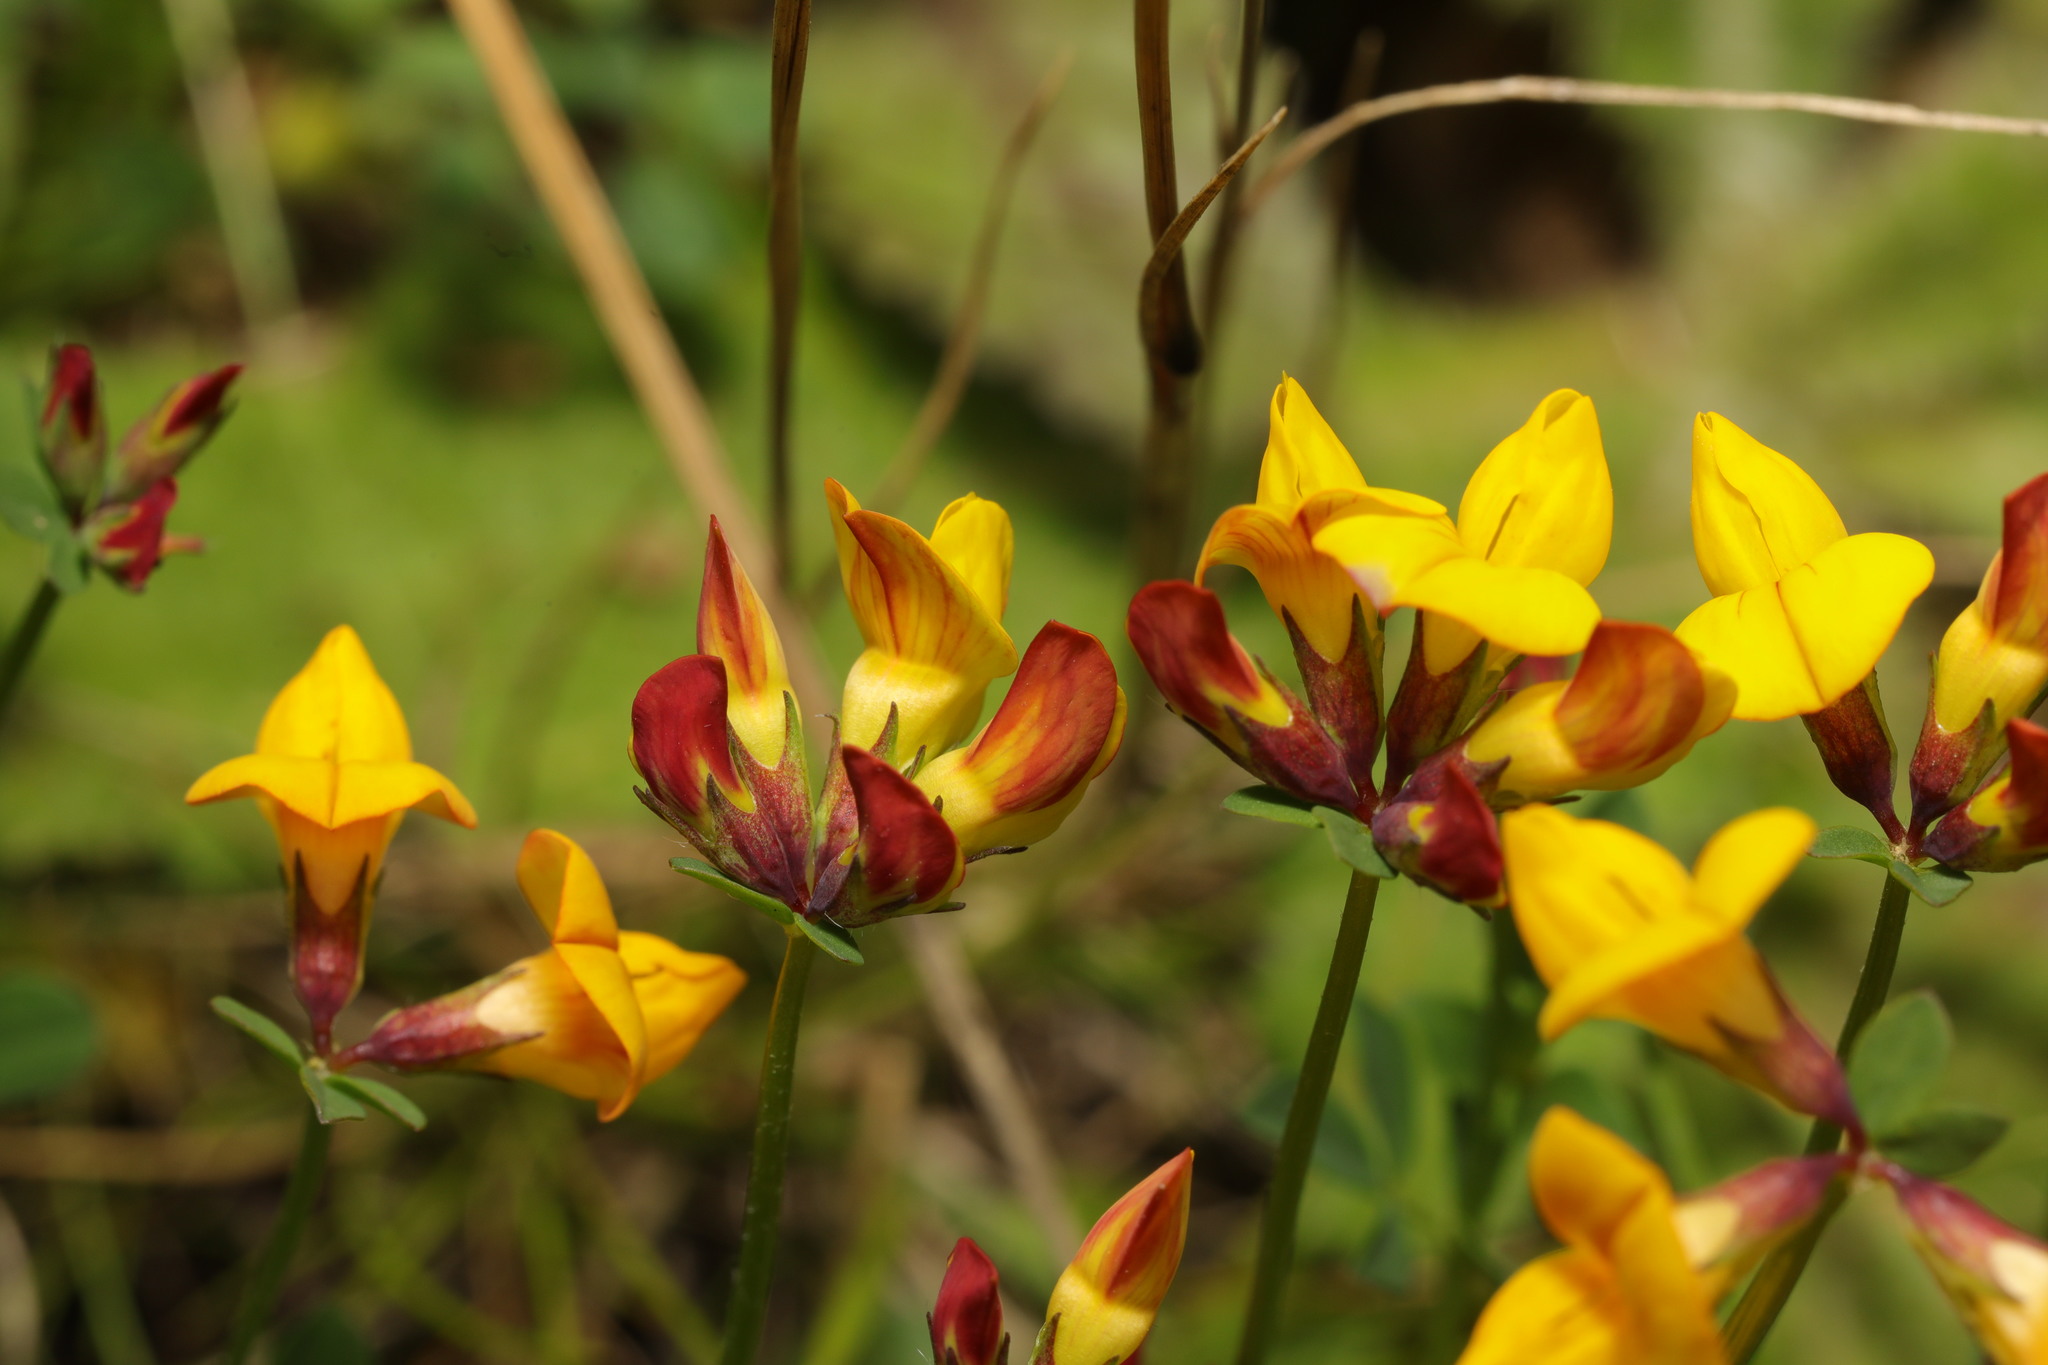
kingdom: Plantae
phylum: Tracheophyta
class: Magnoliopsida
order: Fabales
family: Fabaceae
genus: Lotus
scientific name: Lotus corniculatus
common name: Common bird's-foot-trefoil
